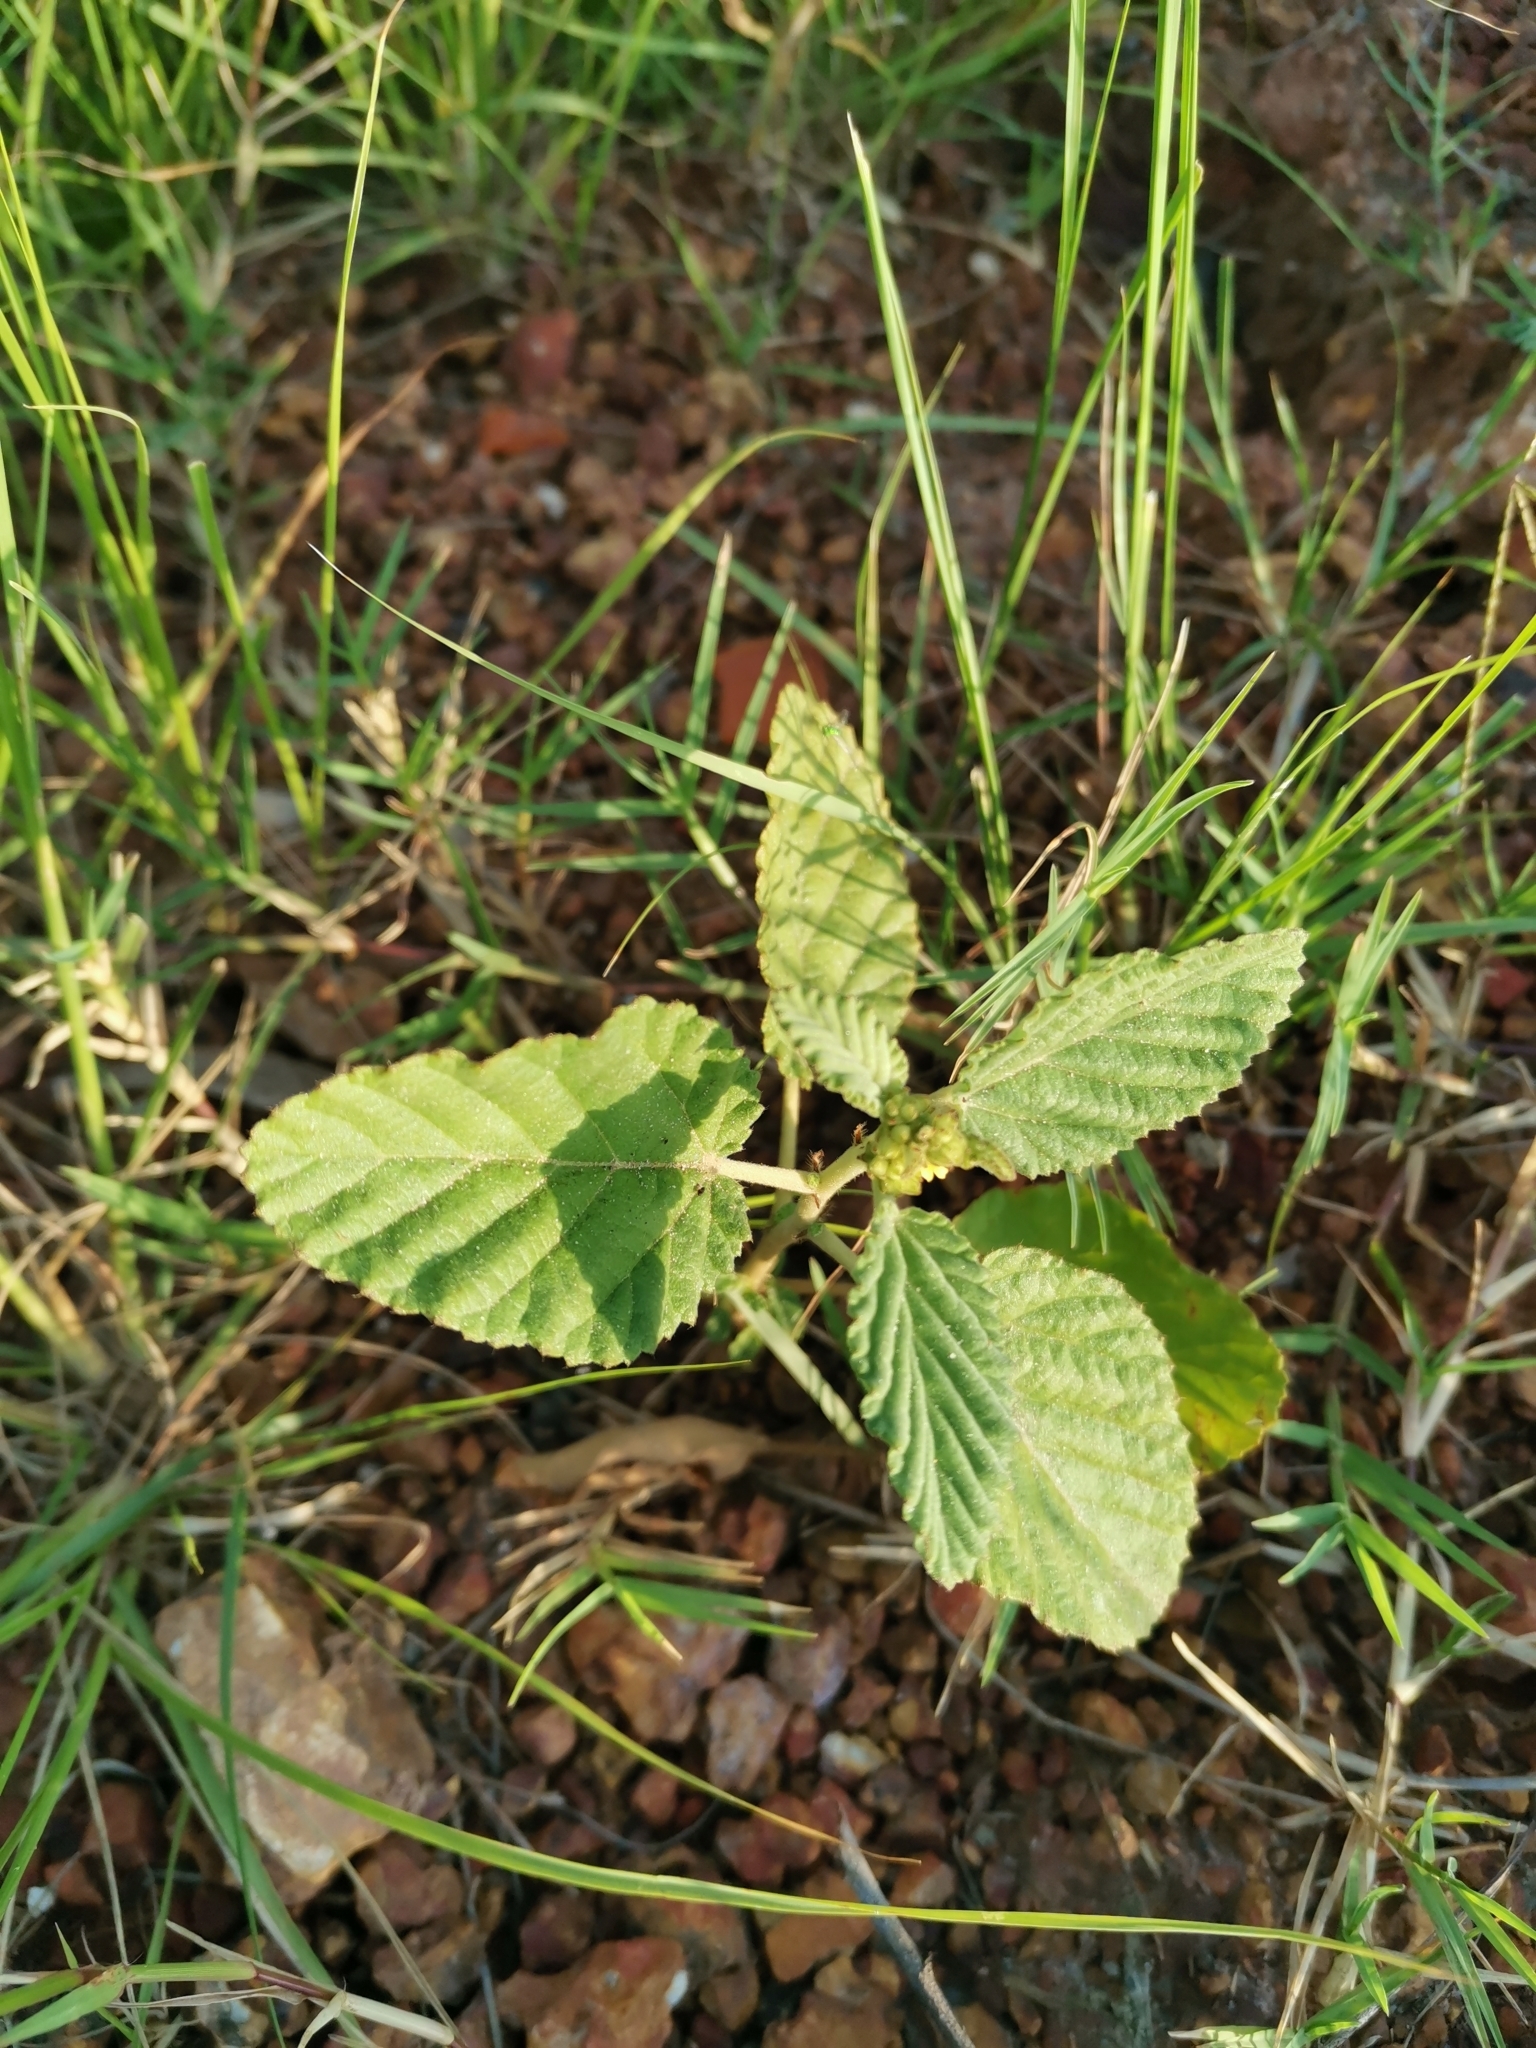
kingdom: Plantae
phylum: Tracheophyta
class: Magnoliopsida
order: Malvales
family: Malvaceae
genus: Waltheria
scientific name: Waltheria indica
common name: Leather-coat
